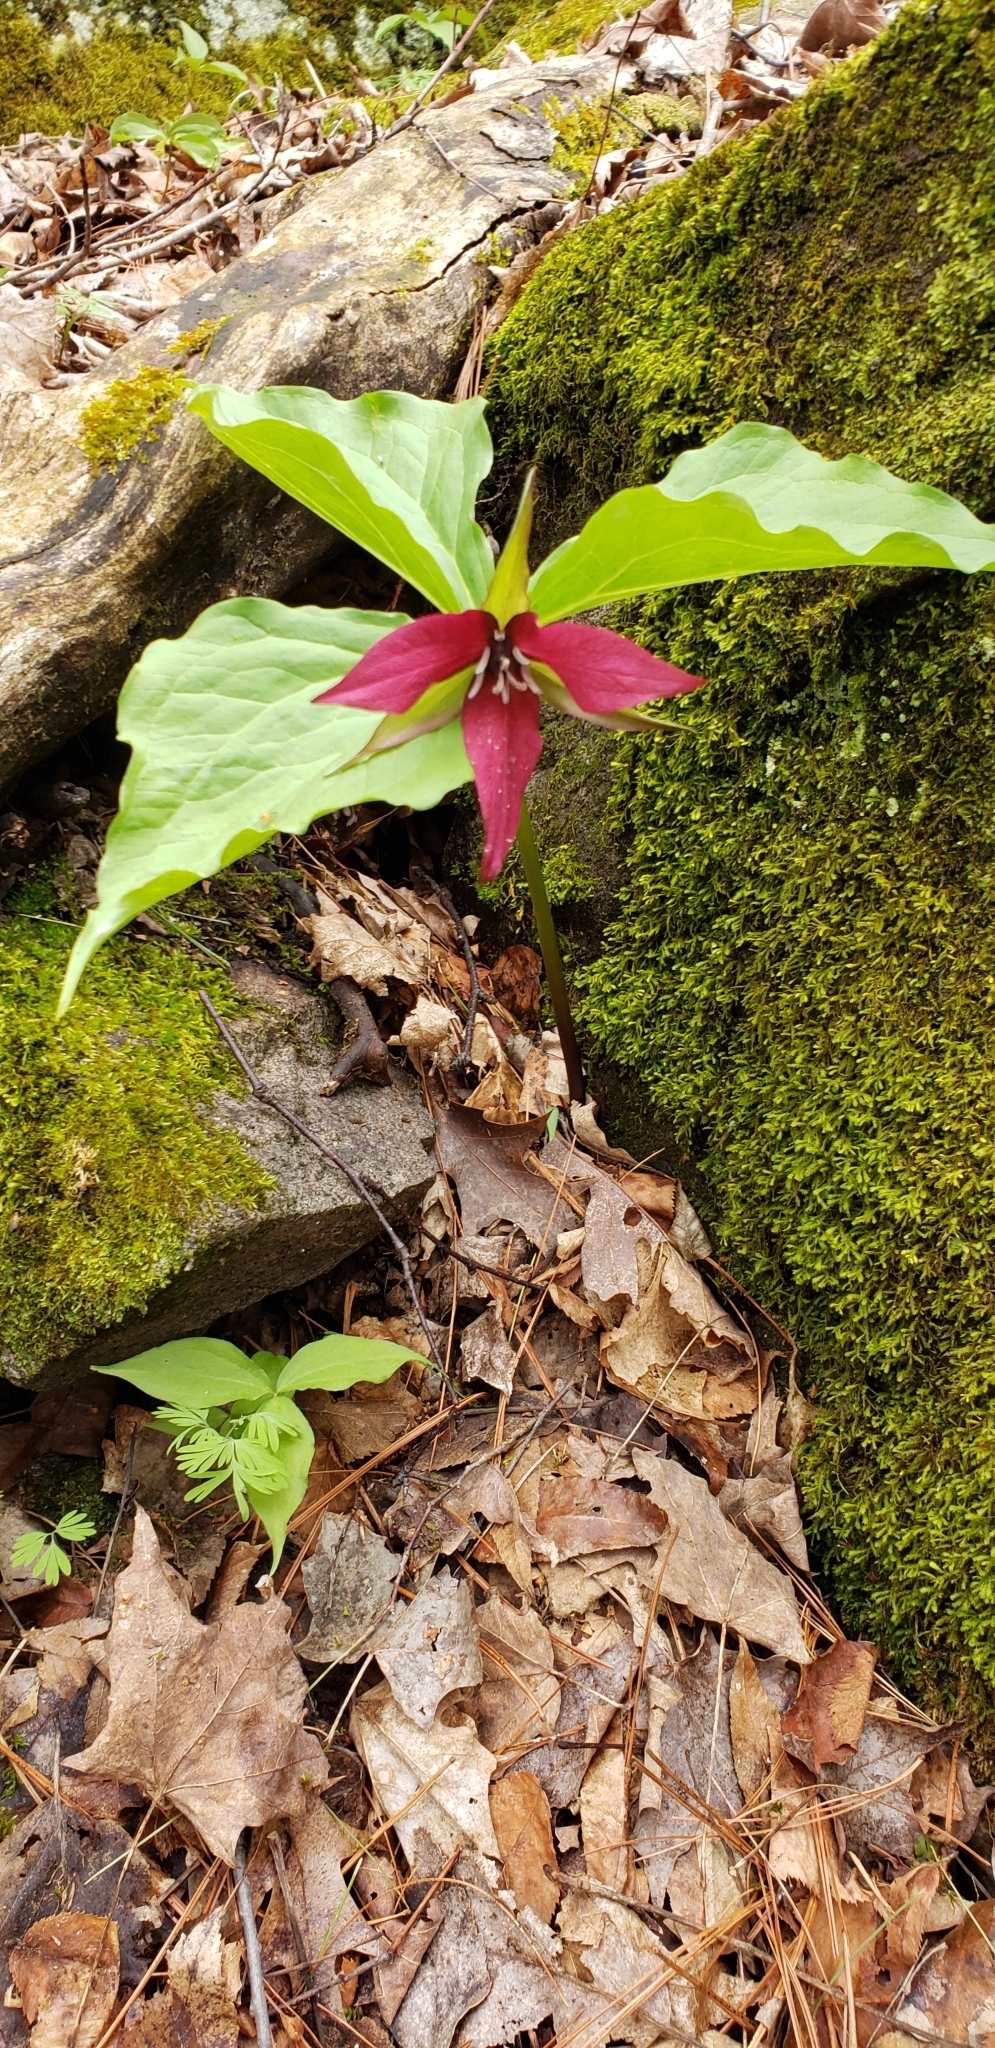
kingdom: Plantae
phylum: Tracheophyta
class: Liliopsida
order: Liliales
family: Melanthiaceae
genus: Trillium
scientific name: Trillium erectum
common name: Purple trillium
